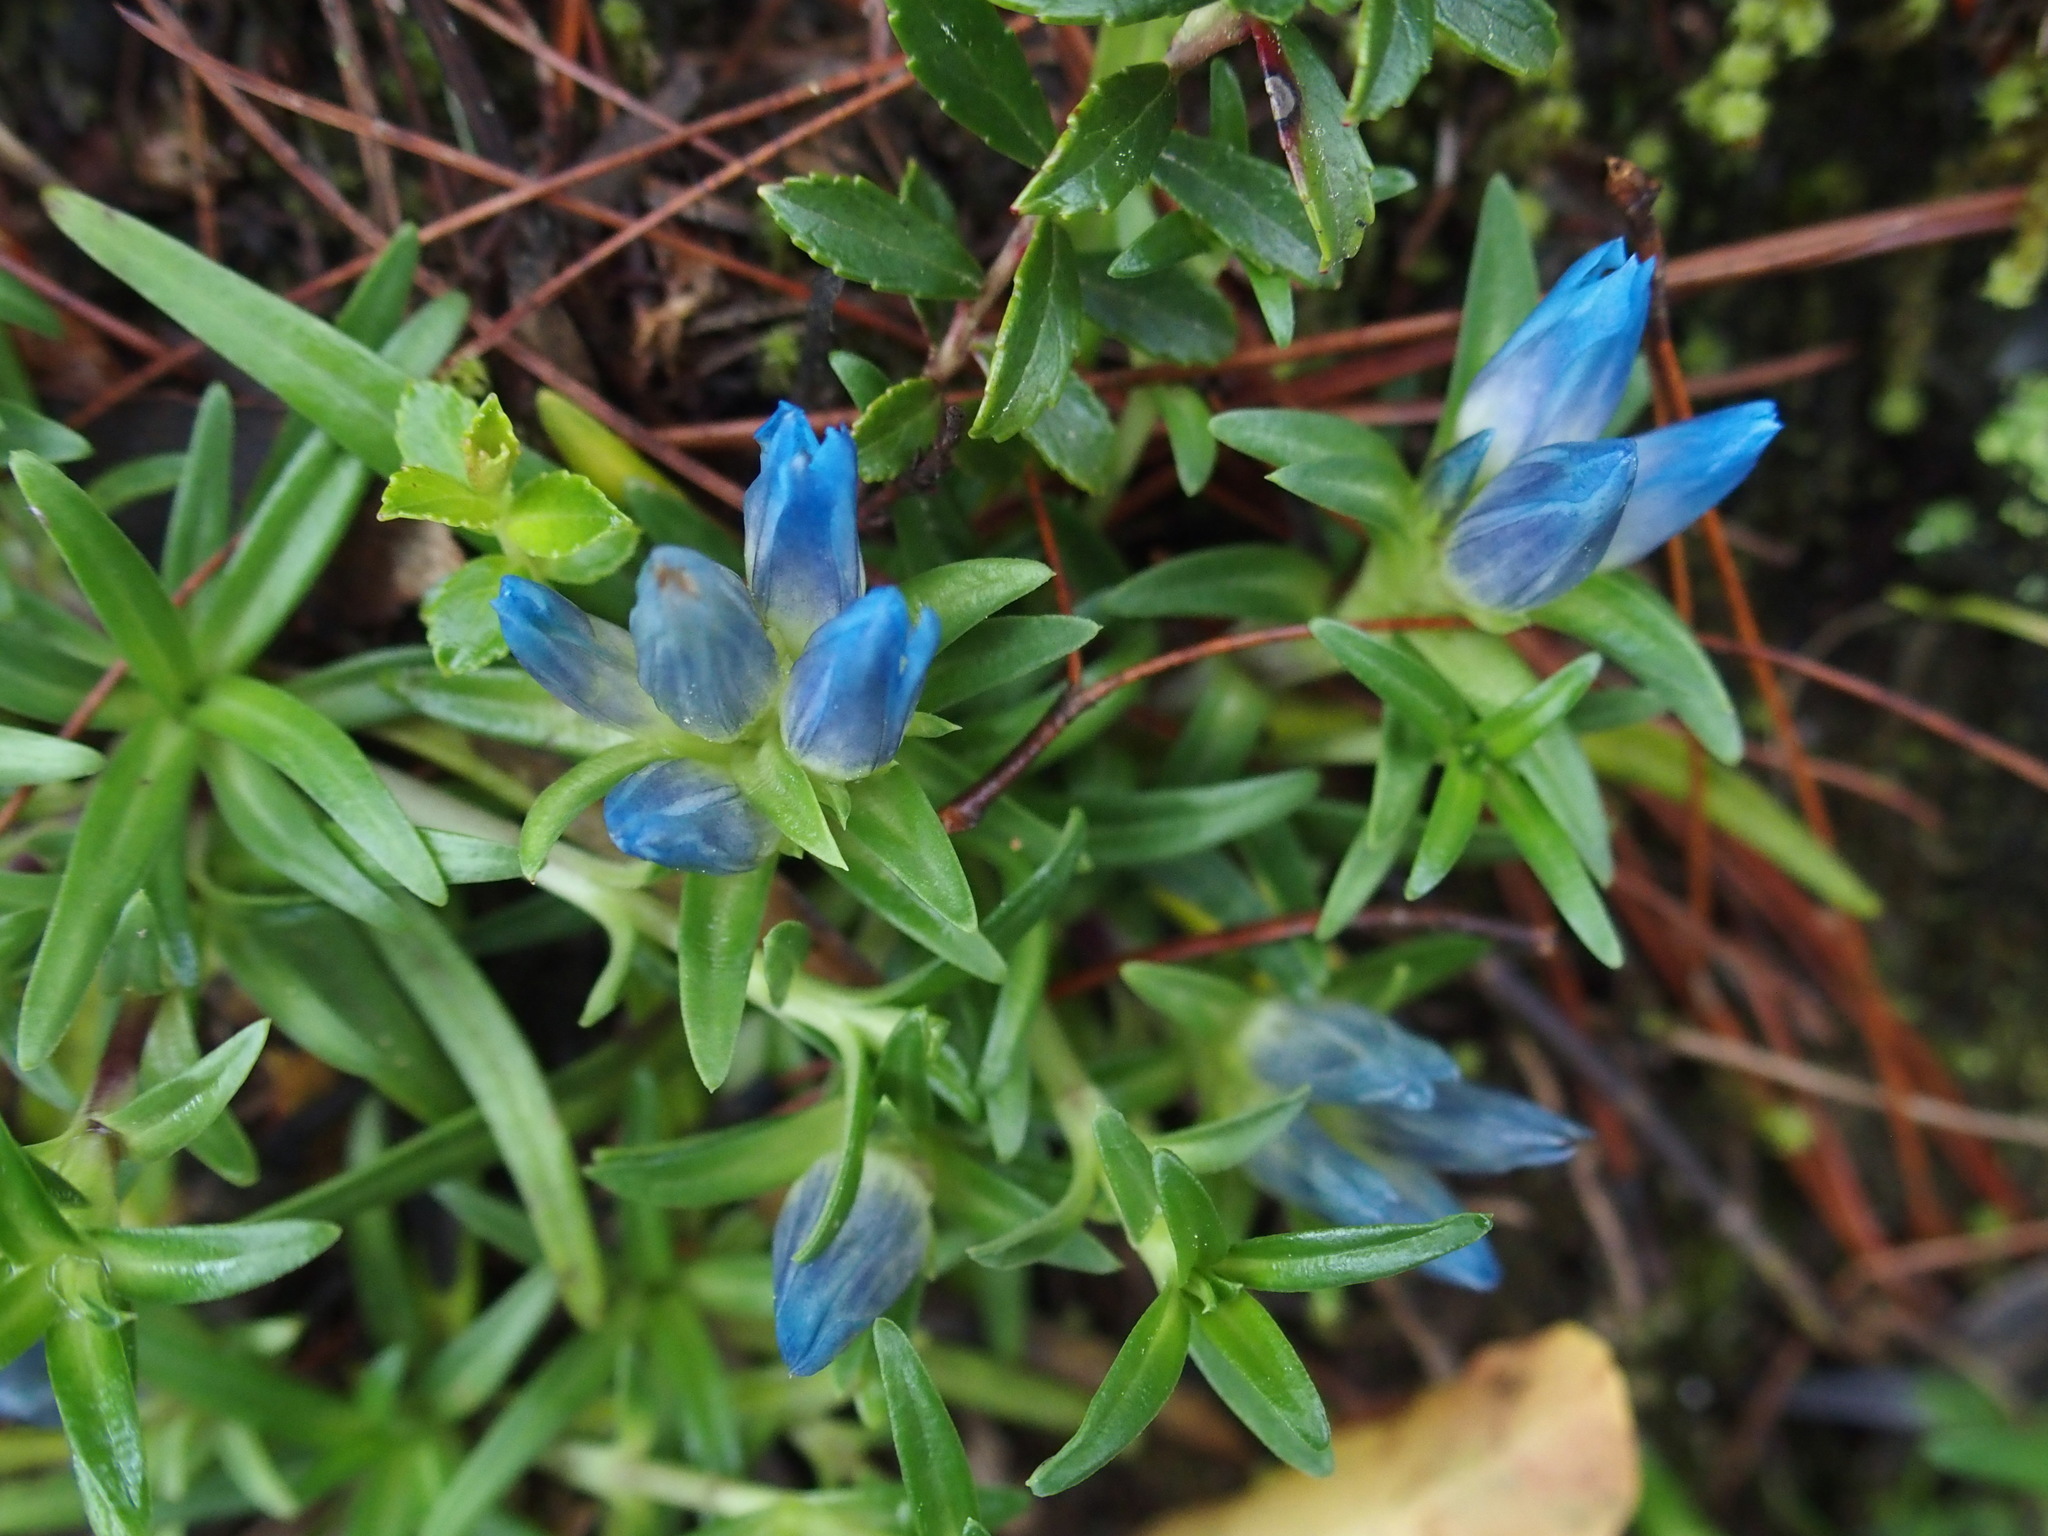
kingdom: Plantae
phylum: Tracheophyta
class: Magnoliopsida
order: Gentianales
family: Gentianaceae
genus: Gentiana
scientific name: Gentiana davidii
